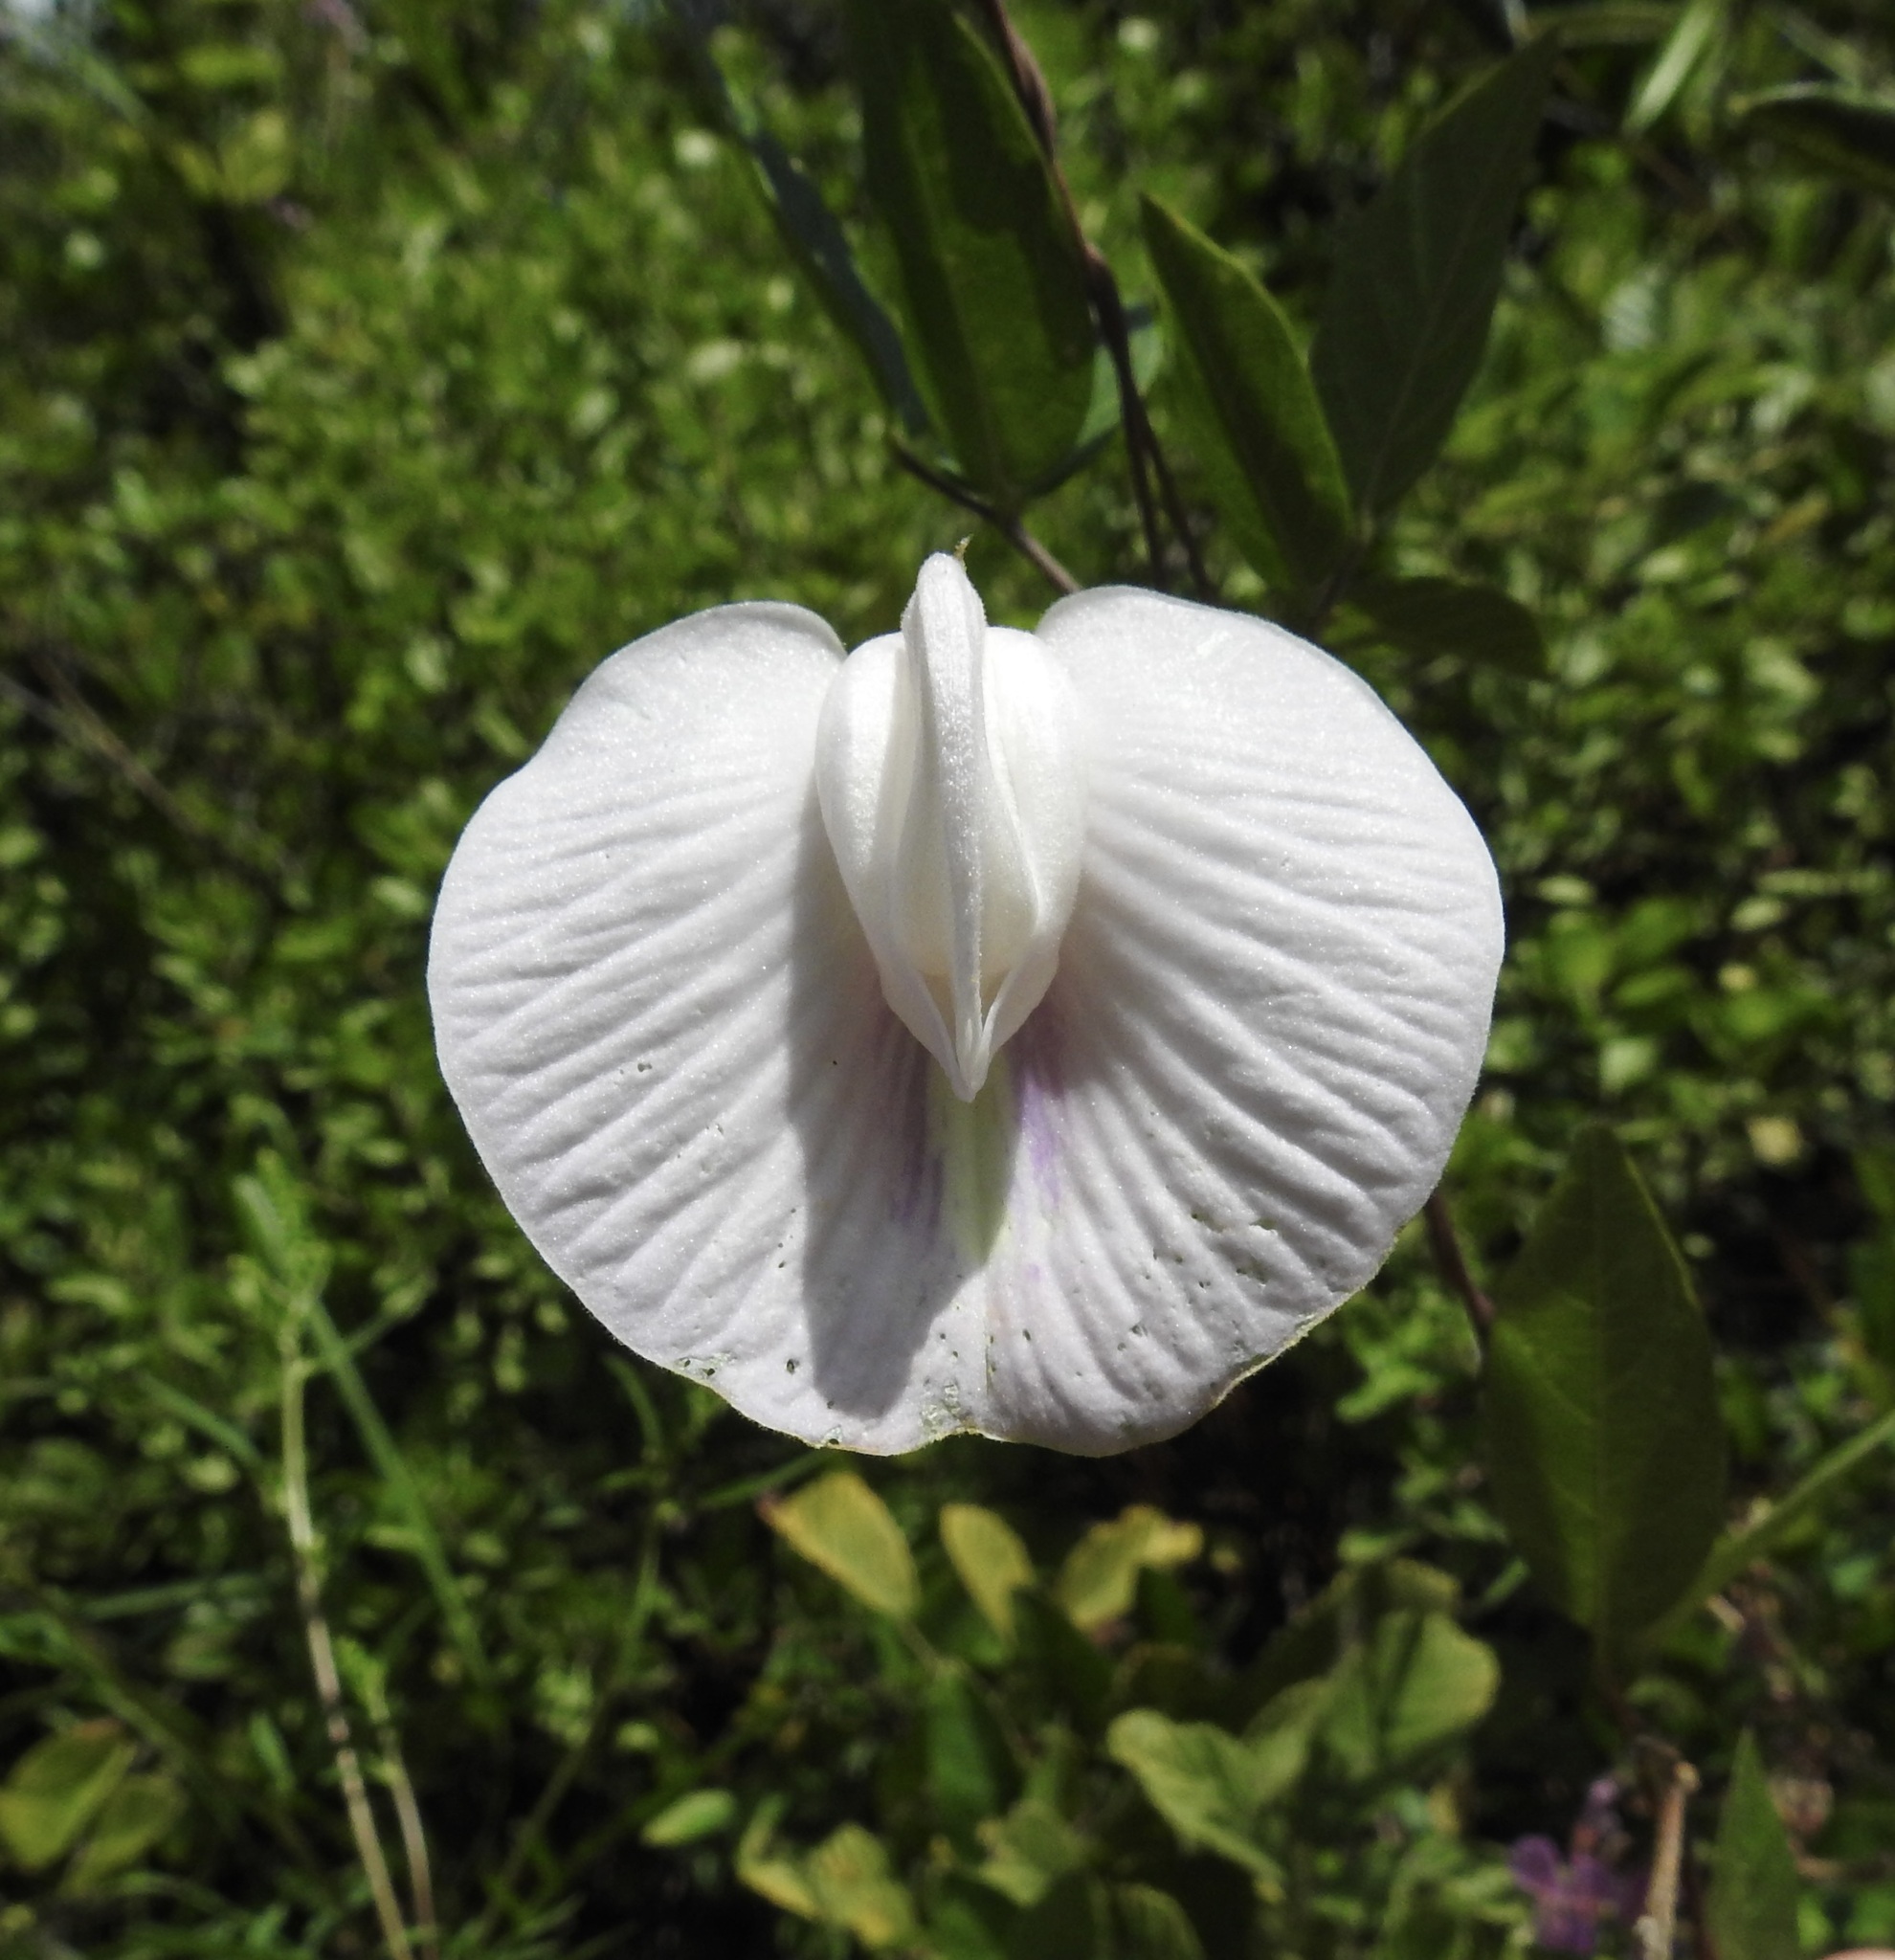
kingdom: Plantae
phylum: Tracheophyta
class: Magnoliopsida
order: Fabales
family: Fabaceae
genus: Centrosema
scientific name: Centrosema arenicola
